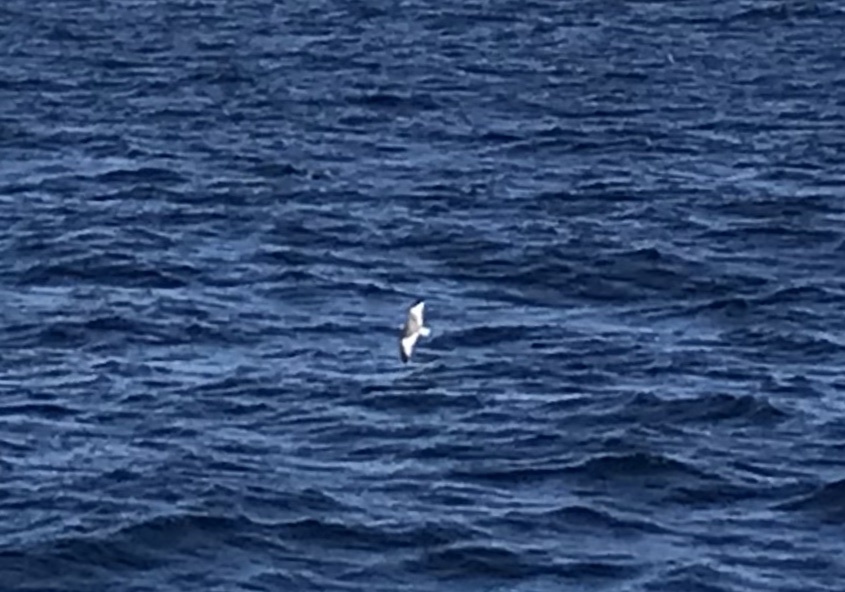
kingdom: Animalia
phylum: Chordata
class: Aves
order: Charadriiformes
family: Laridae
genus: Xema
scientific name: Xema sabini
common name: Sabine's gull
